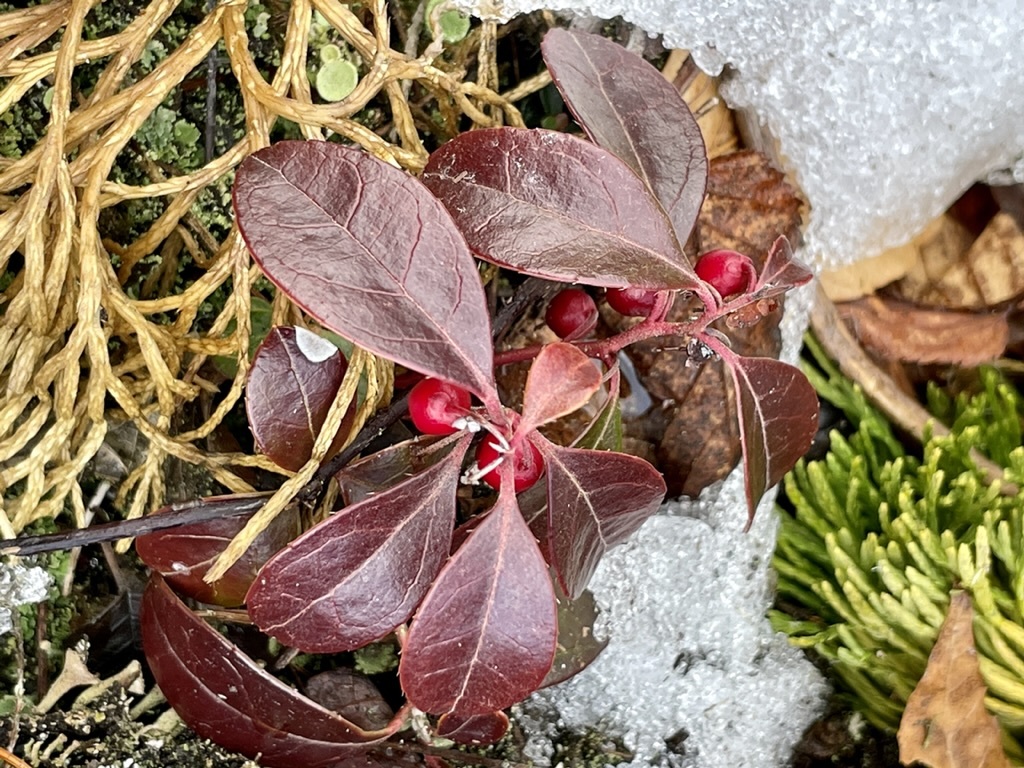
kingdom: Plantae
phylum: Tracheophyta
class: Magnoliopsida
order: Ericales
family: Ericaceae
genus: Gaultheria
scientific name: Gaultheria procumbens
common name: Checkerberry
